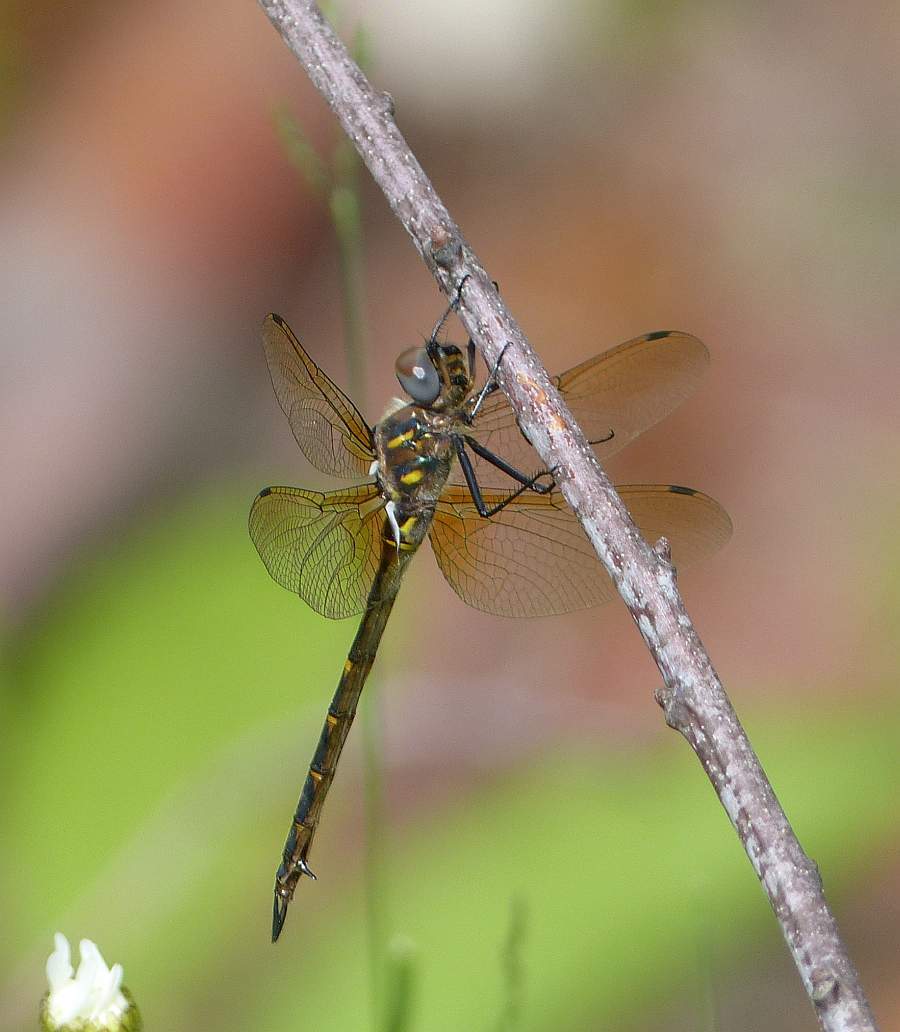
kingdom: Animalia
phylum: Arthropoda
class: Insecta
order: Odonata
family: Corduliidae
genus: Somatochlora
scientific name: Somatochlora williamsoni
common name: Williamson's emerald
